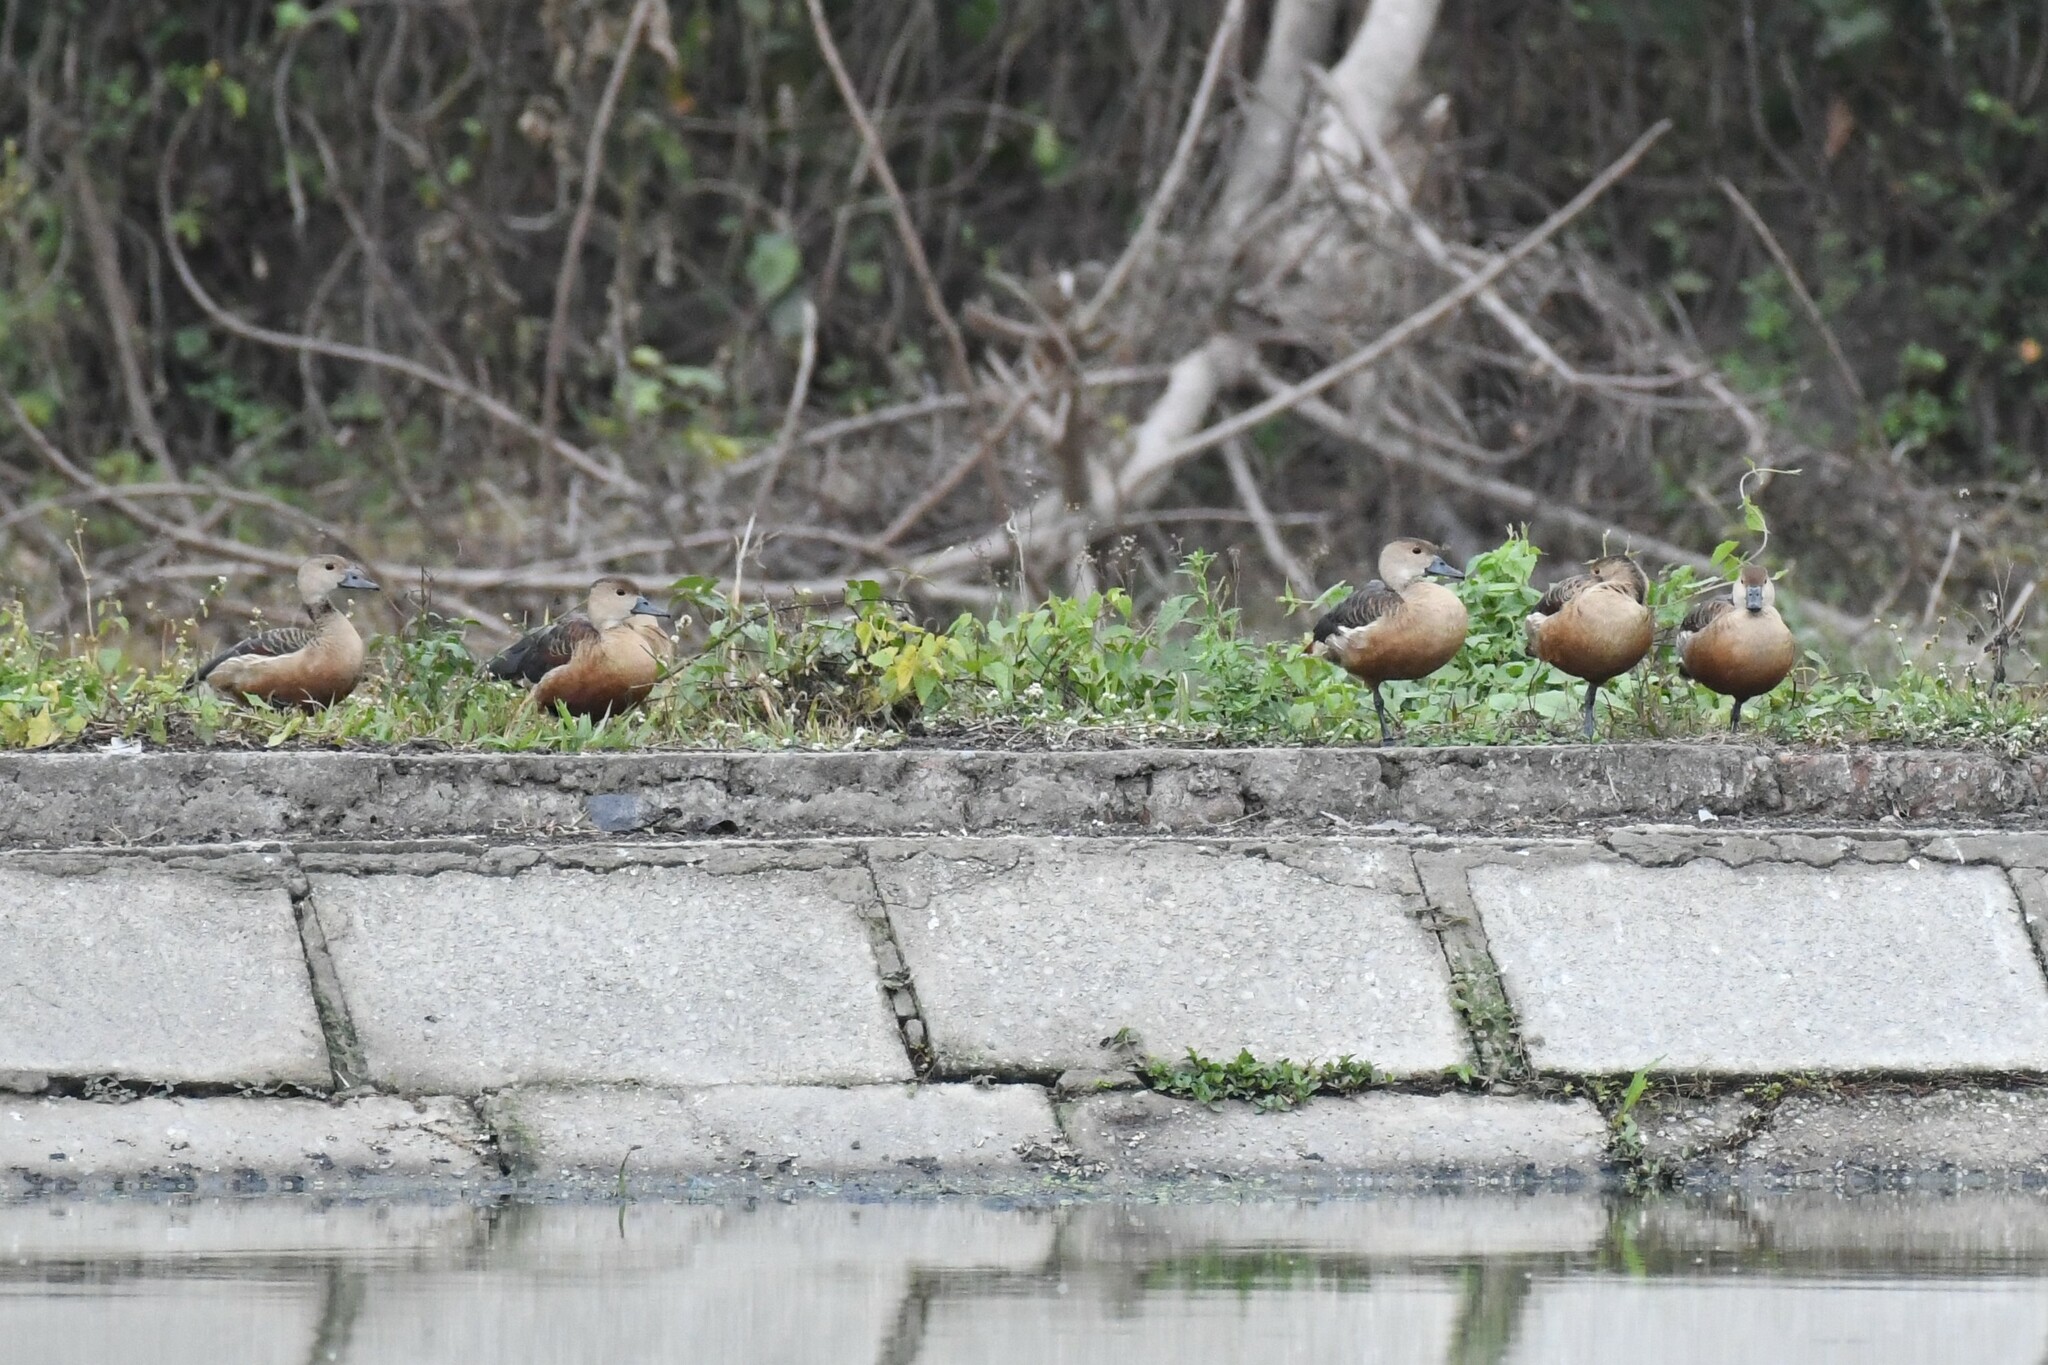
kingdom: Animalia
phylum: Chordata
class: Aves
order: Anseriformes
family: Anatidae
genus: Dendrocygna
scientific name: Dendrocygna javanica
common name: Lesser whistling-duck
